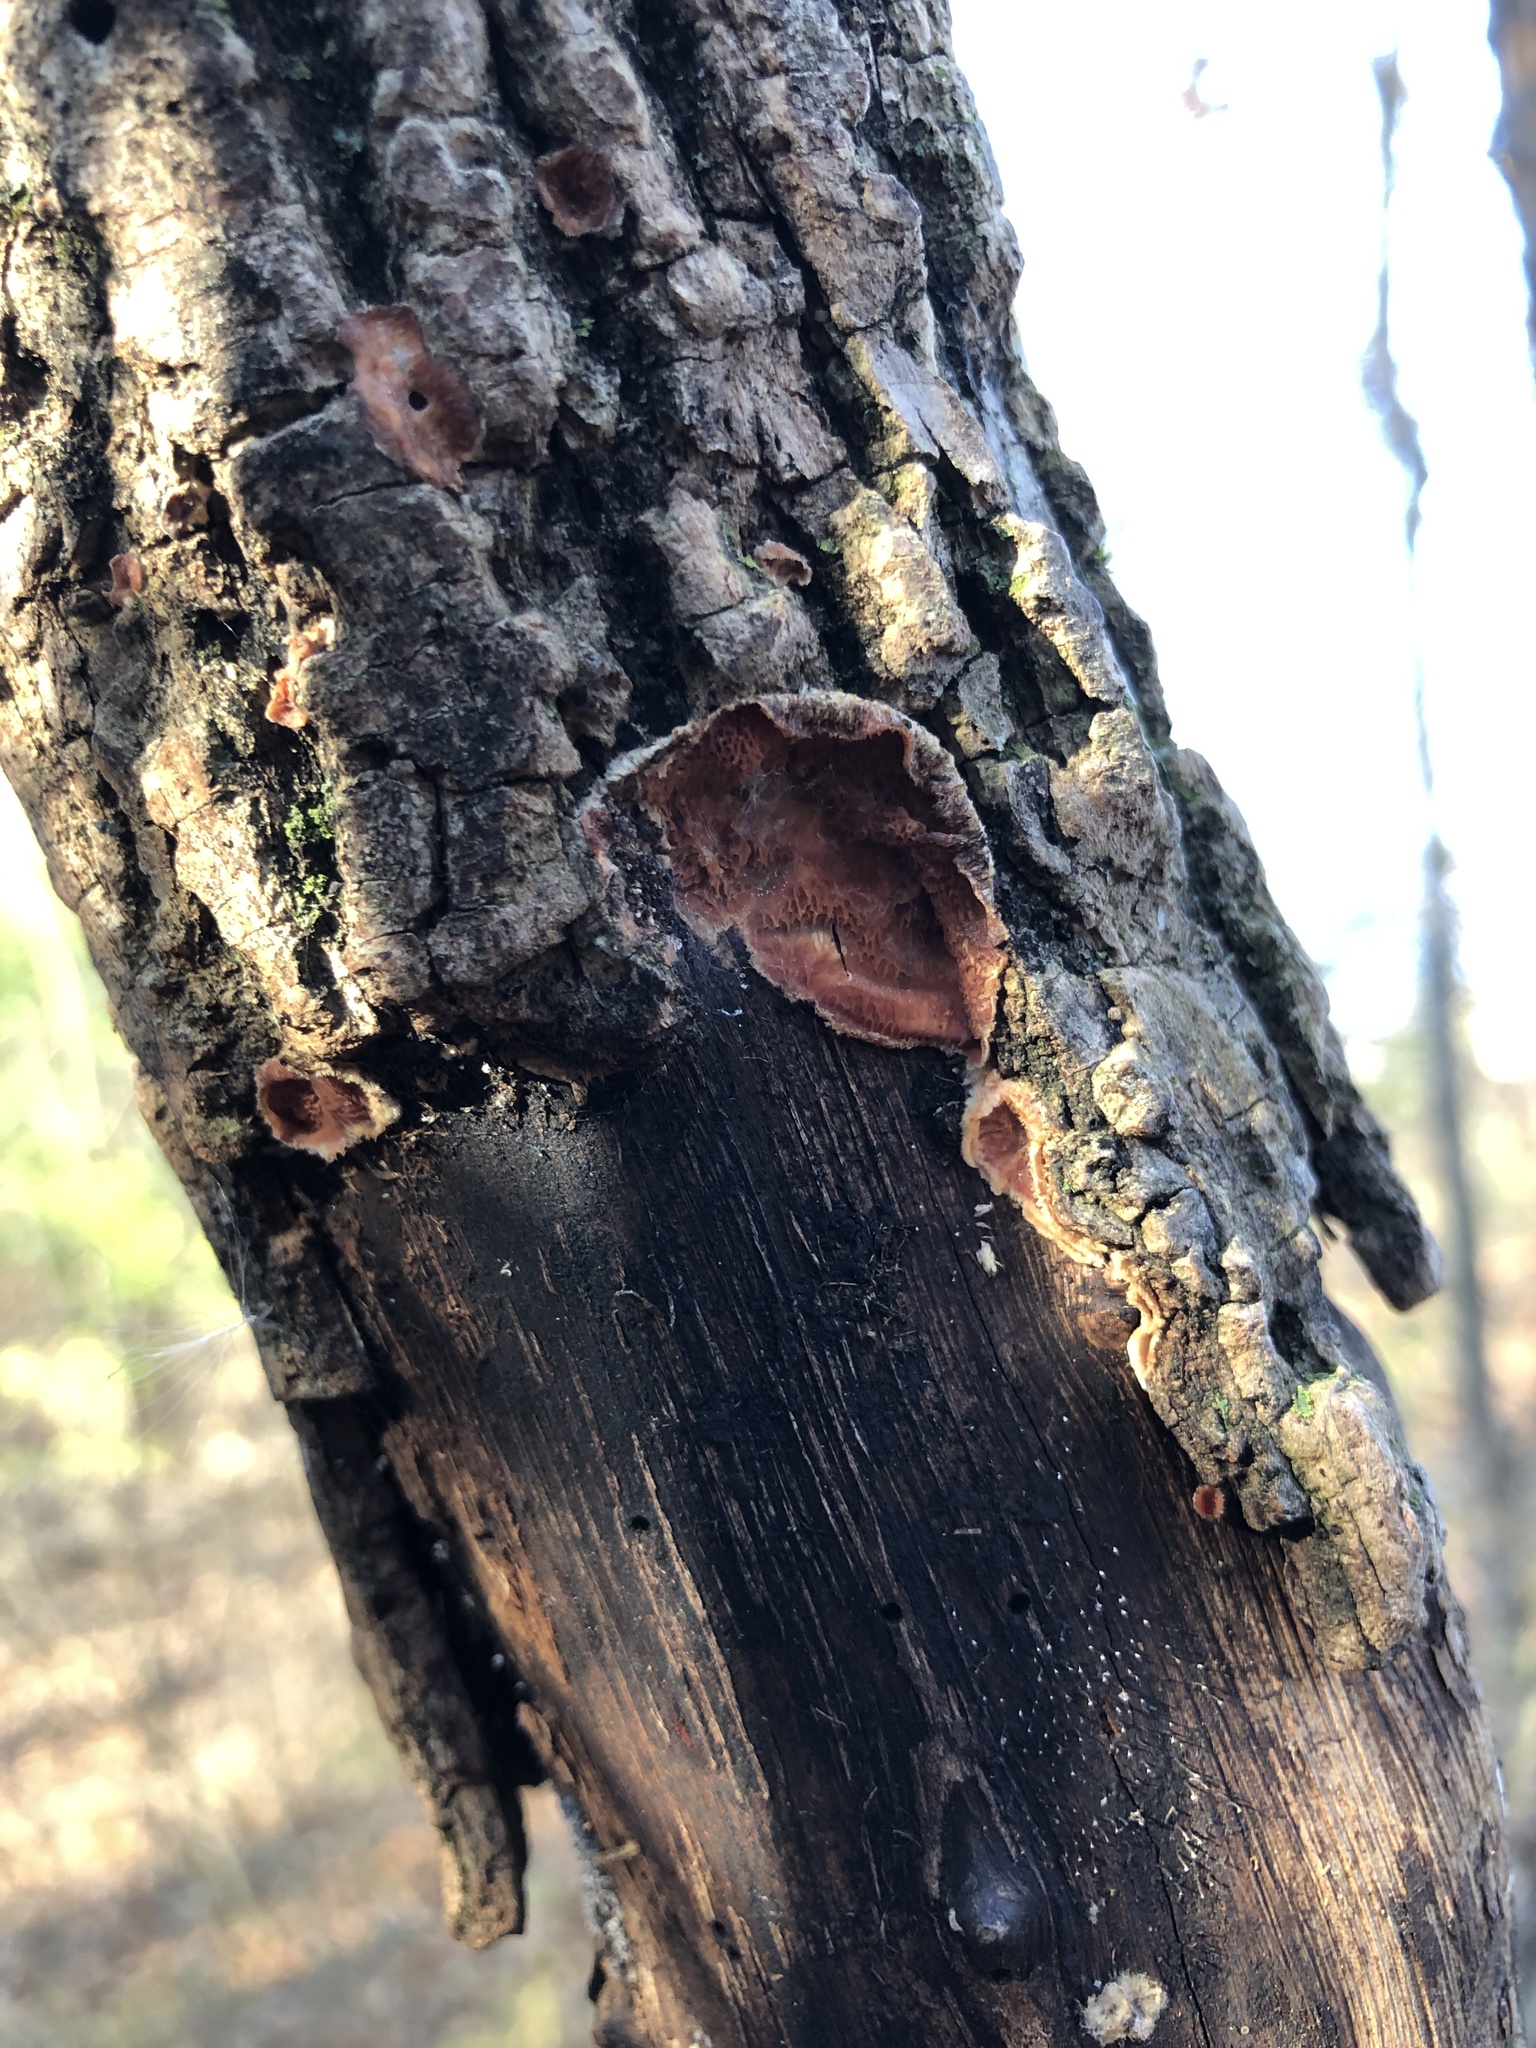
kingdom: Fungi
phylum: Basidiomycota
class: Agaricomycetes
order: Polyporales
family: Meruliaceae
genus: Phlebia
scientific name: Phlebia tremellosa
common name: Jelly rot
